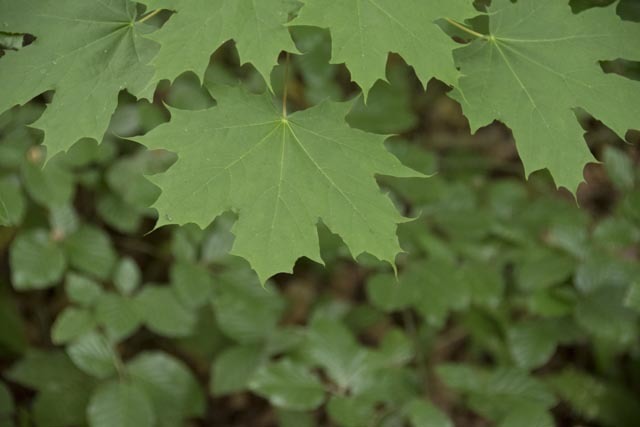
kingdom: Plantae
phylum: Tracheophyta
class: Magnoliopsida
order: Sapindales
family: Sapindaceae
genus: Acer
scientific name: Acer platanoides
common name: Norway maple
